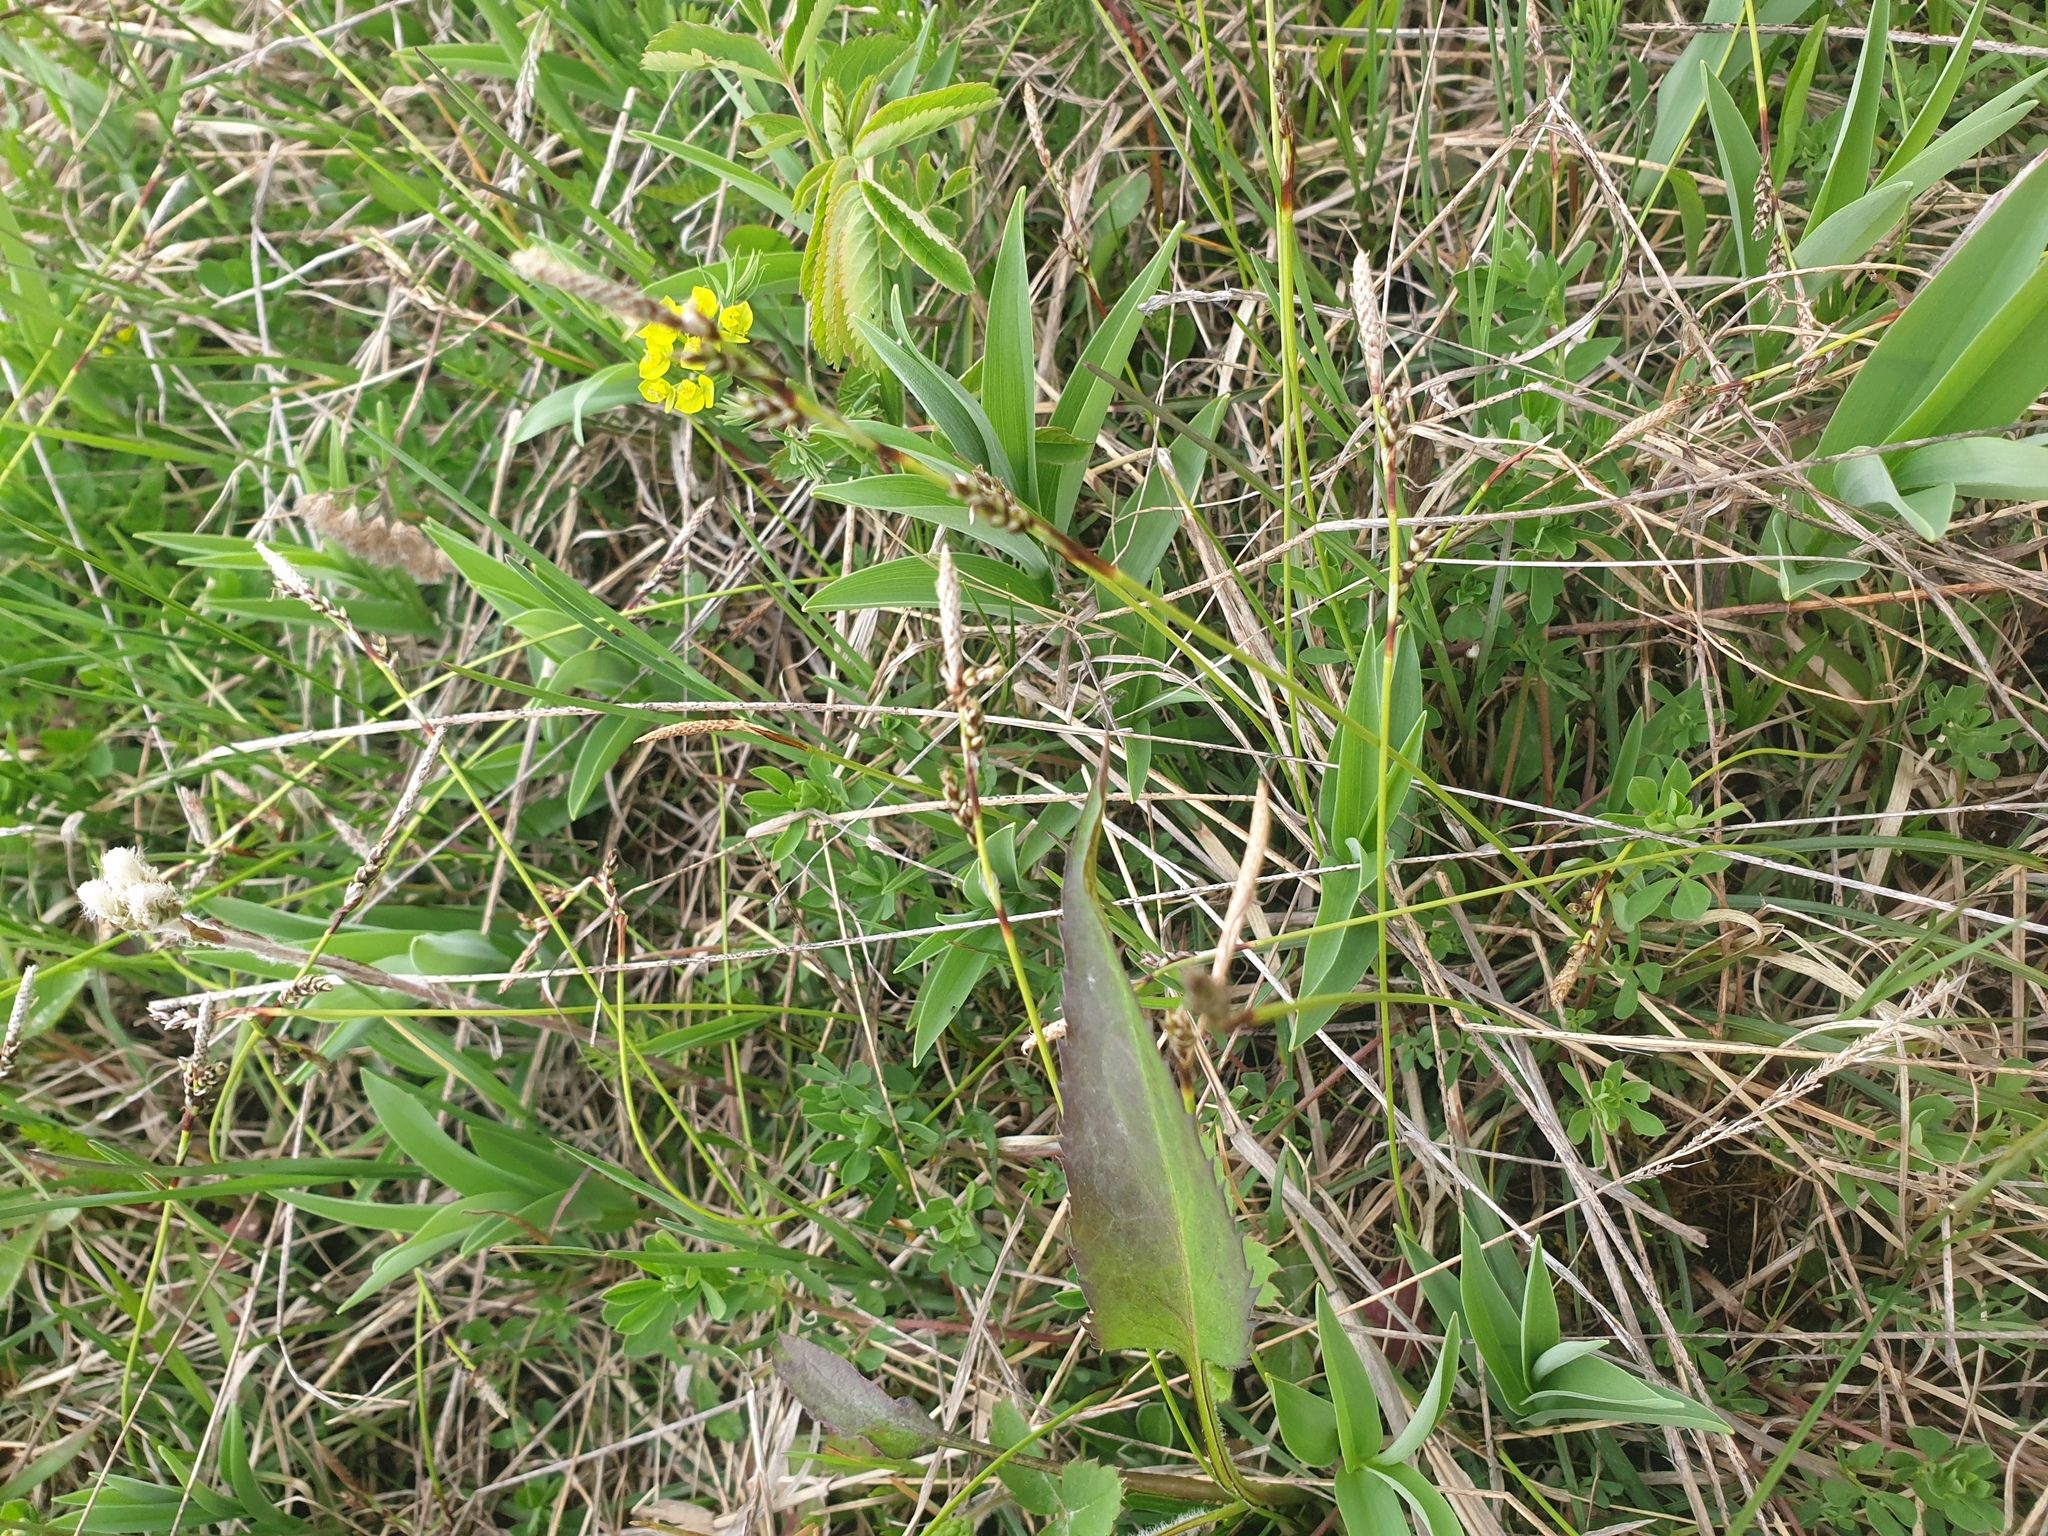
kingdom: Plantae
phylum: Tracheophyta
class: Liliopsida
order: Poales
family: Cyperaceae
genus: Carex
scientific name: Carex richardsonii
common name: Prairie hummock sedge
